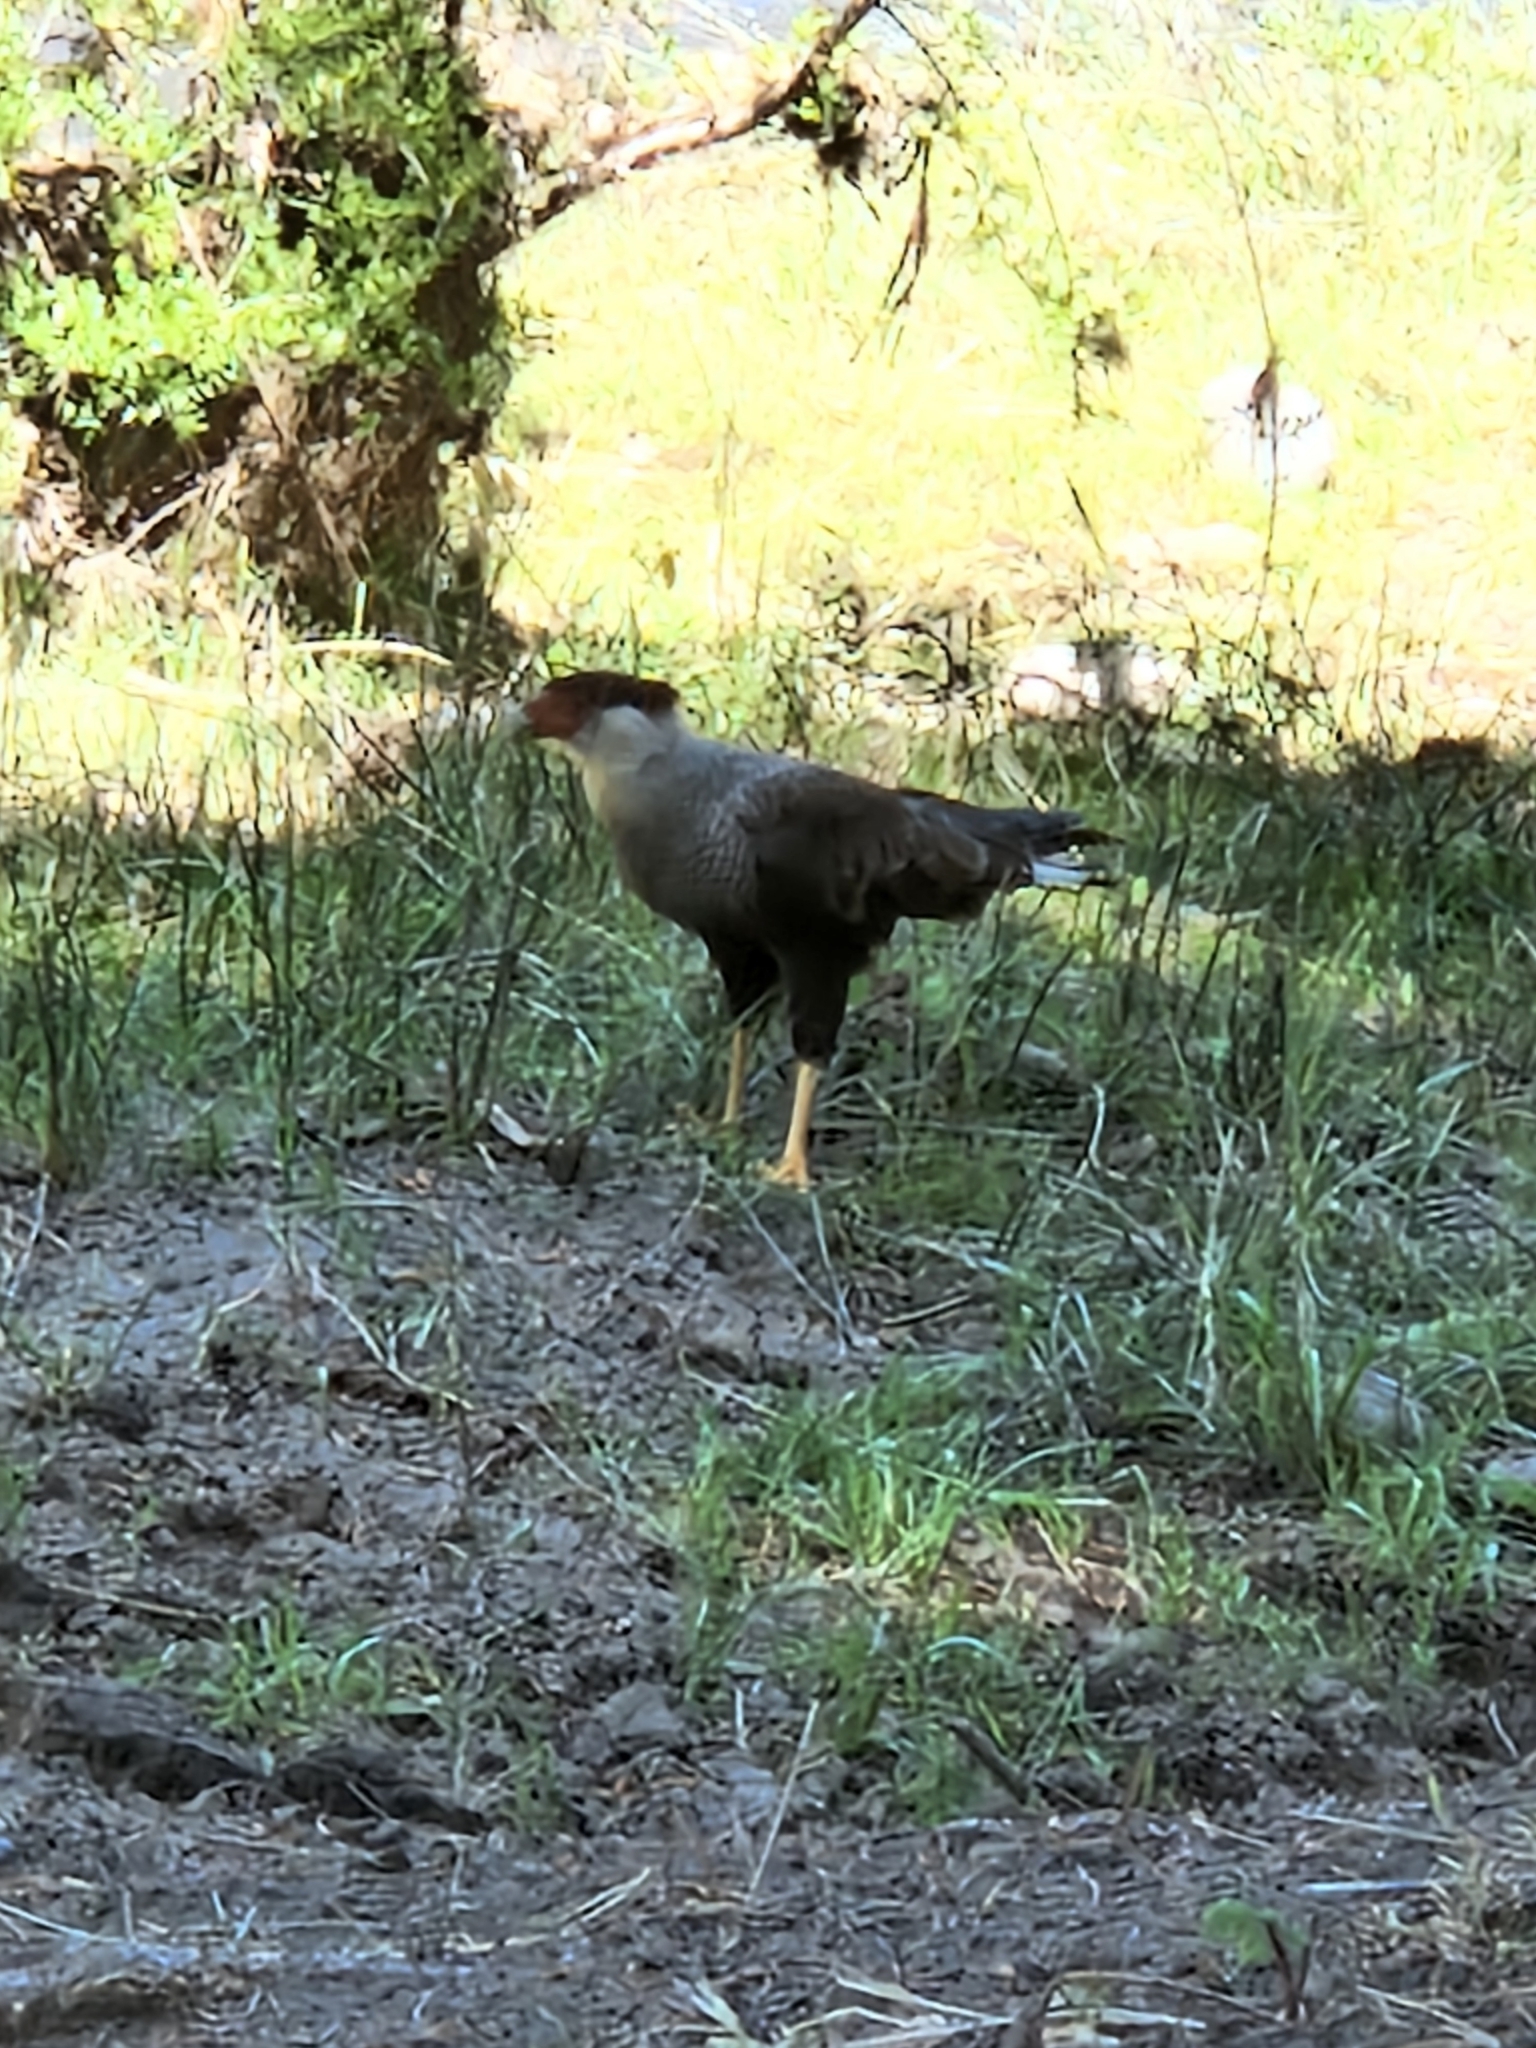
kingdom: Animalia
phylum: Chordata
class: Aves
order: Falconiformes
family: Falconidae
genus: Caracara
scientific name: Caracara plancus
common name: Southern caracara
